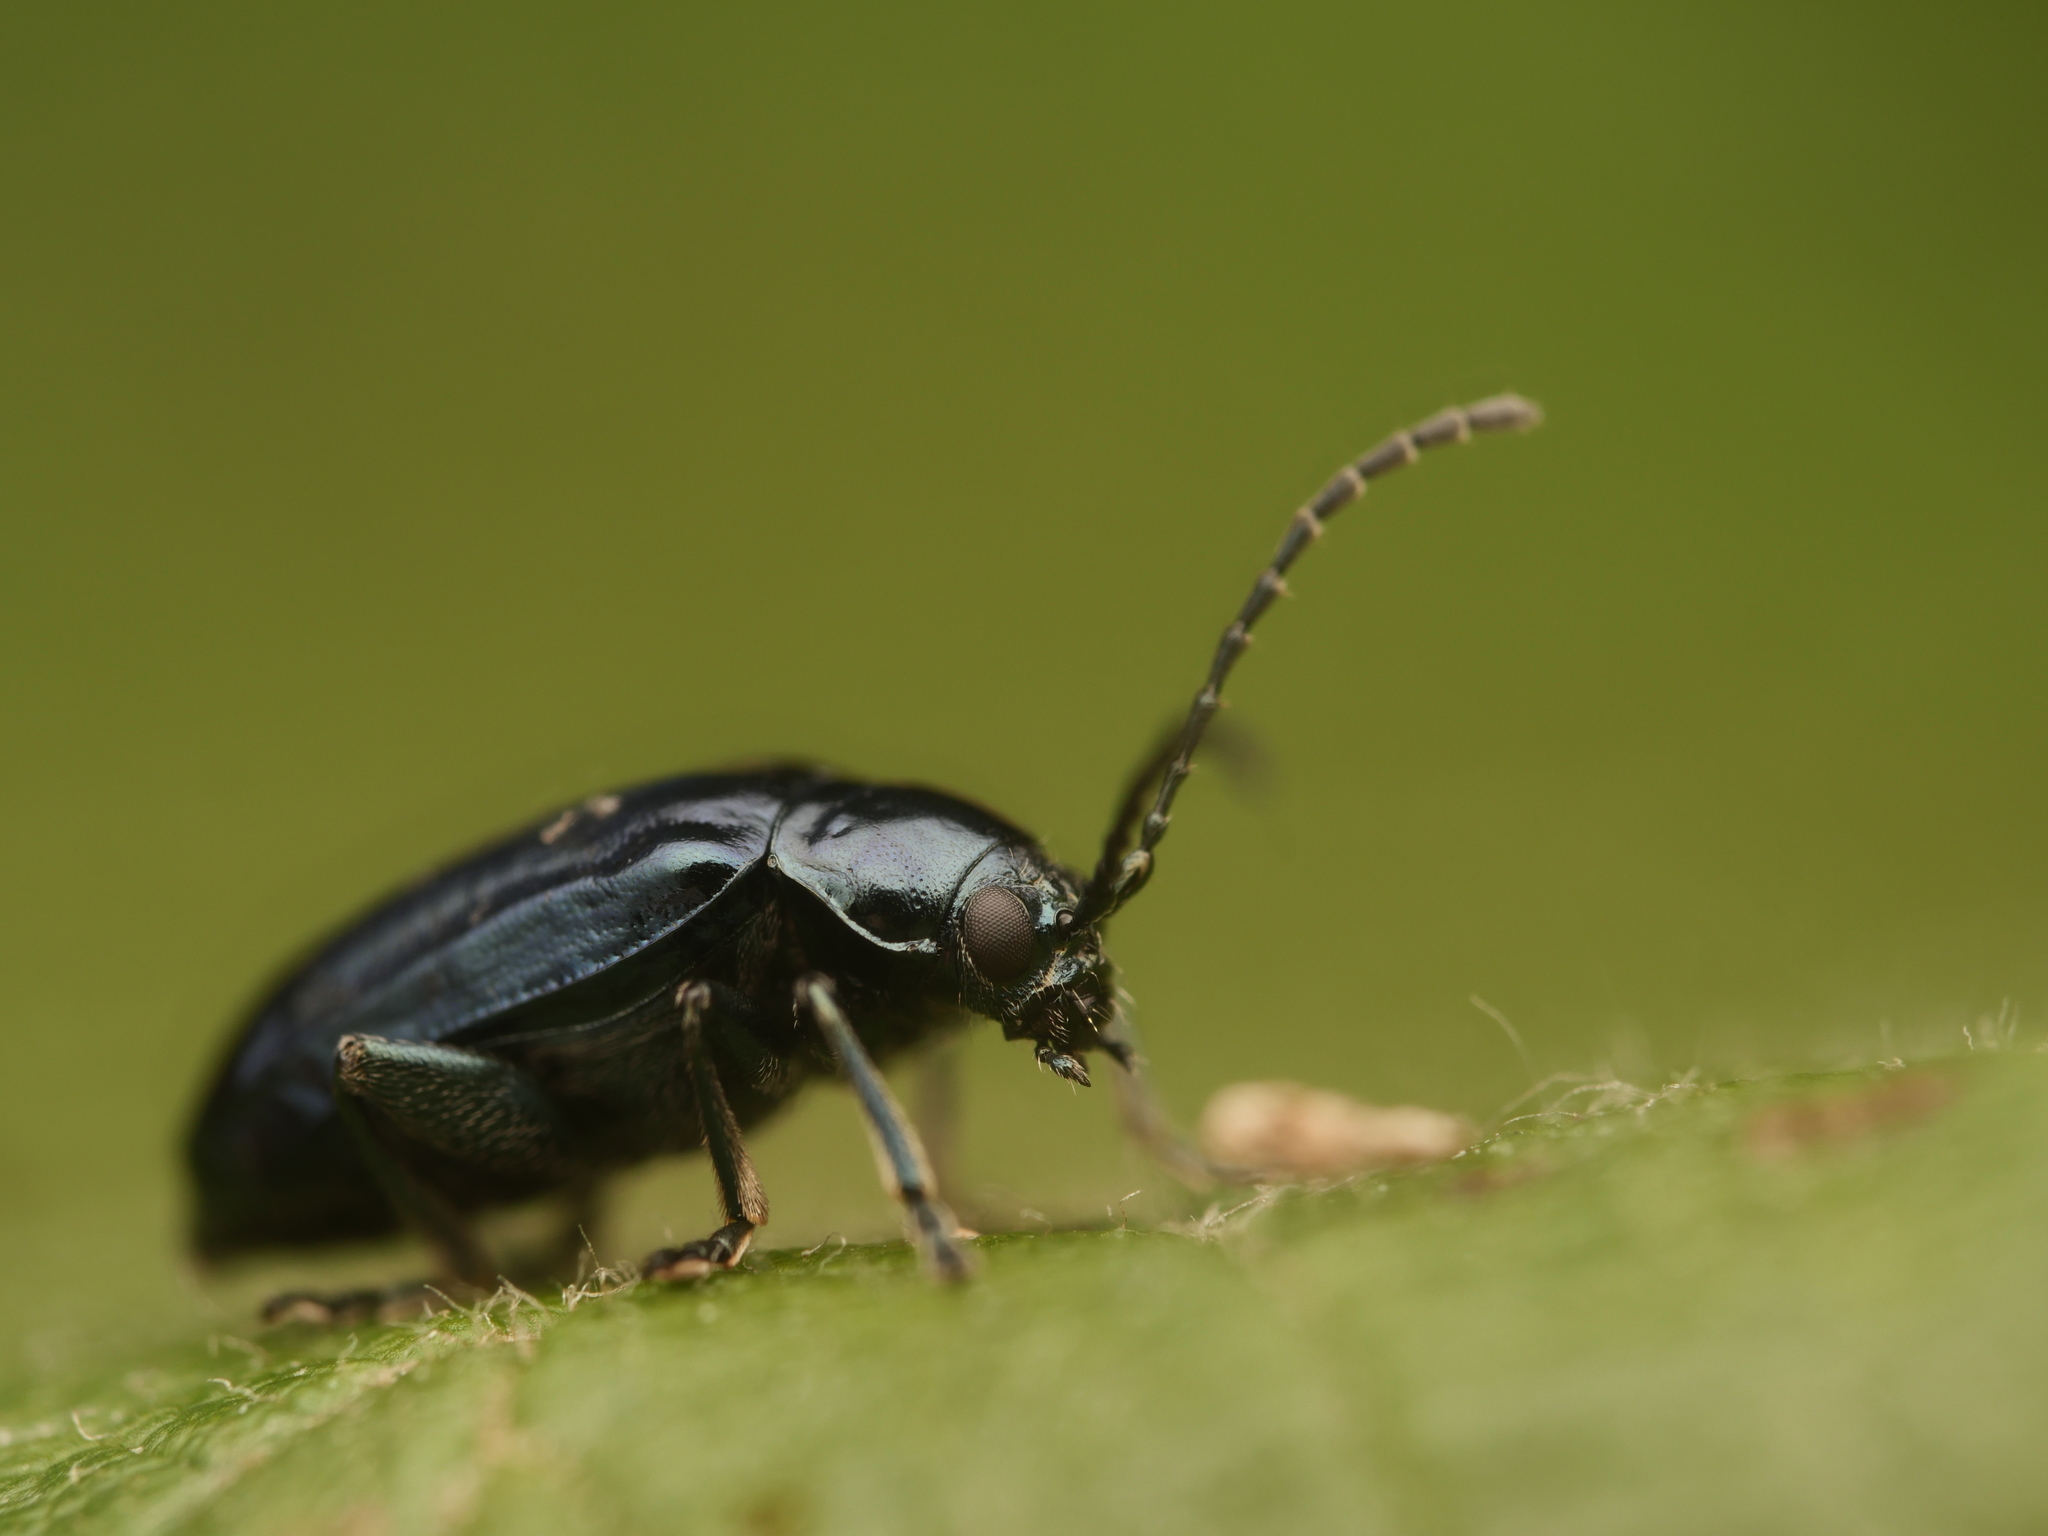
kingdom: Animalia
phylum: Arthropoda
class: Insecta
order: Coleoptera
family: Chrysomelidae
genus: Altica
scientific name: Altica ambiens
